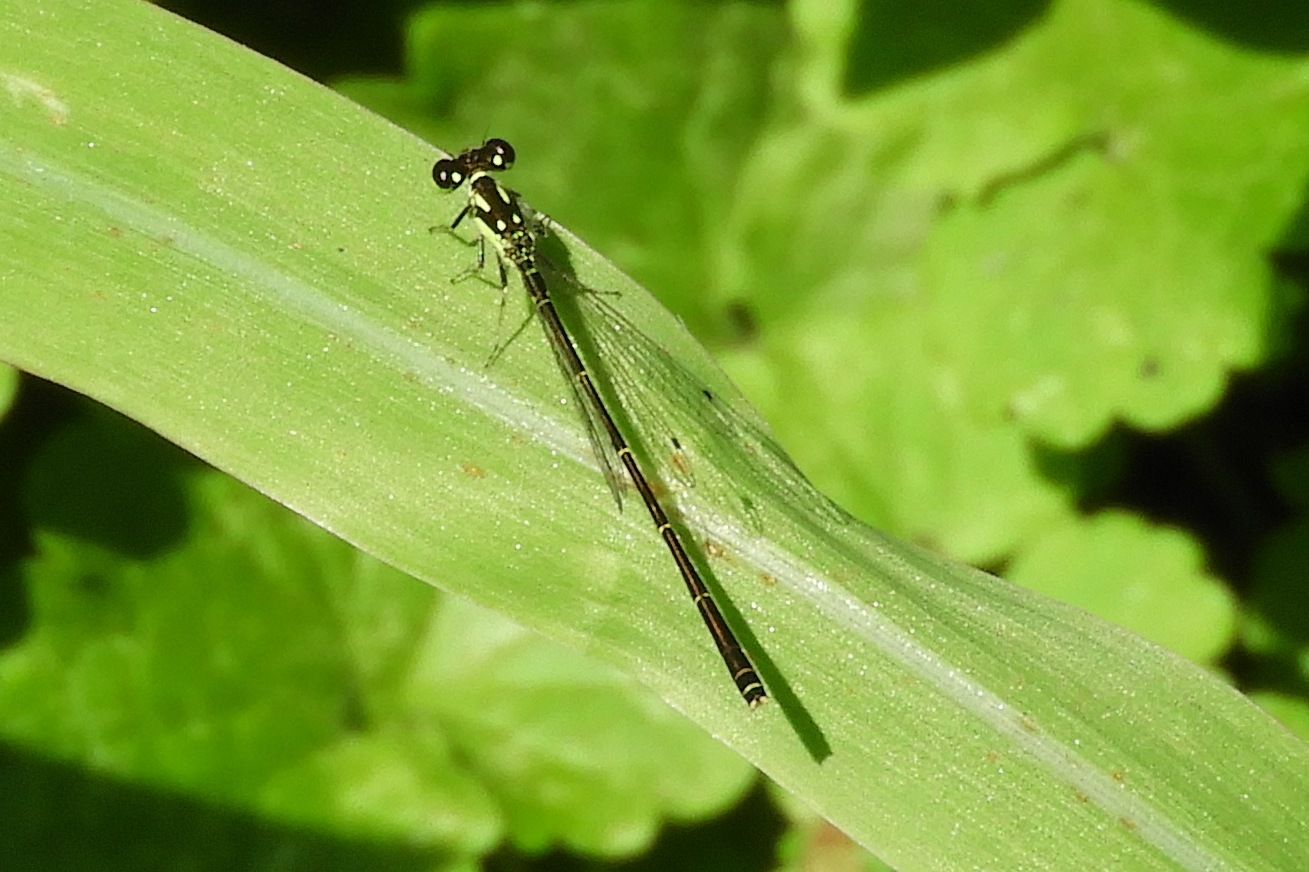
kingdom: Animalia
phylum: Arthropoda
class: Insecta
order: Odonata
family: Coenagrionidae
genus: Ischnura
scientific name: Ischnura posita
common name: Fragile forktail
